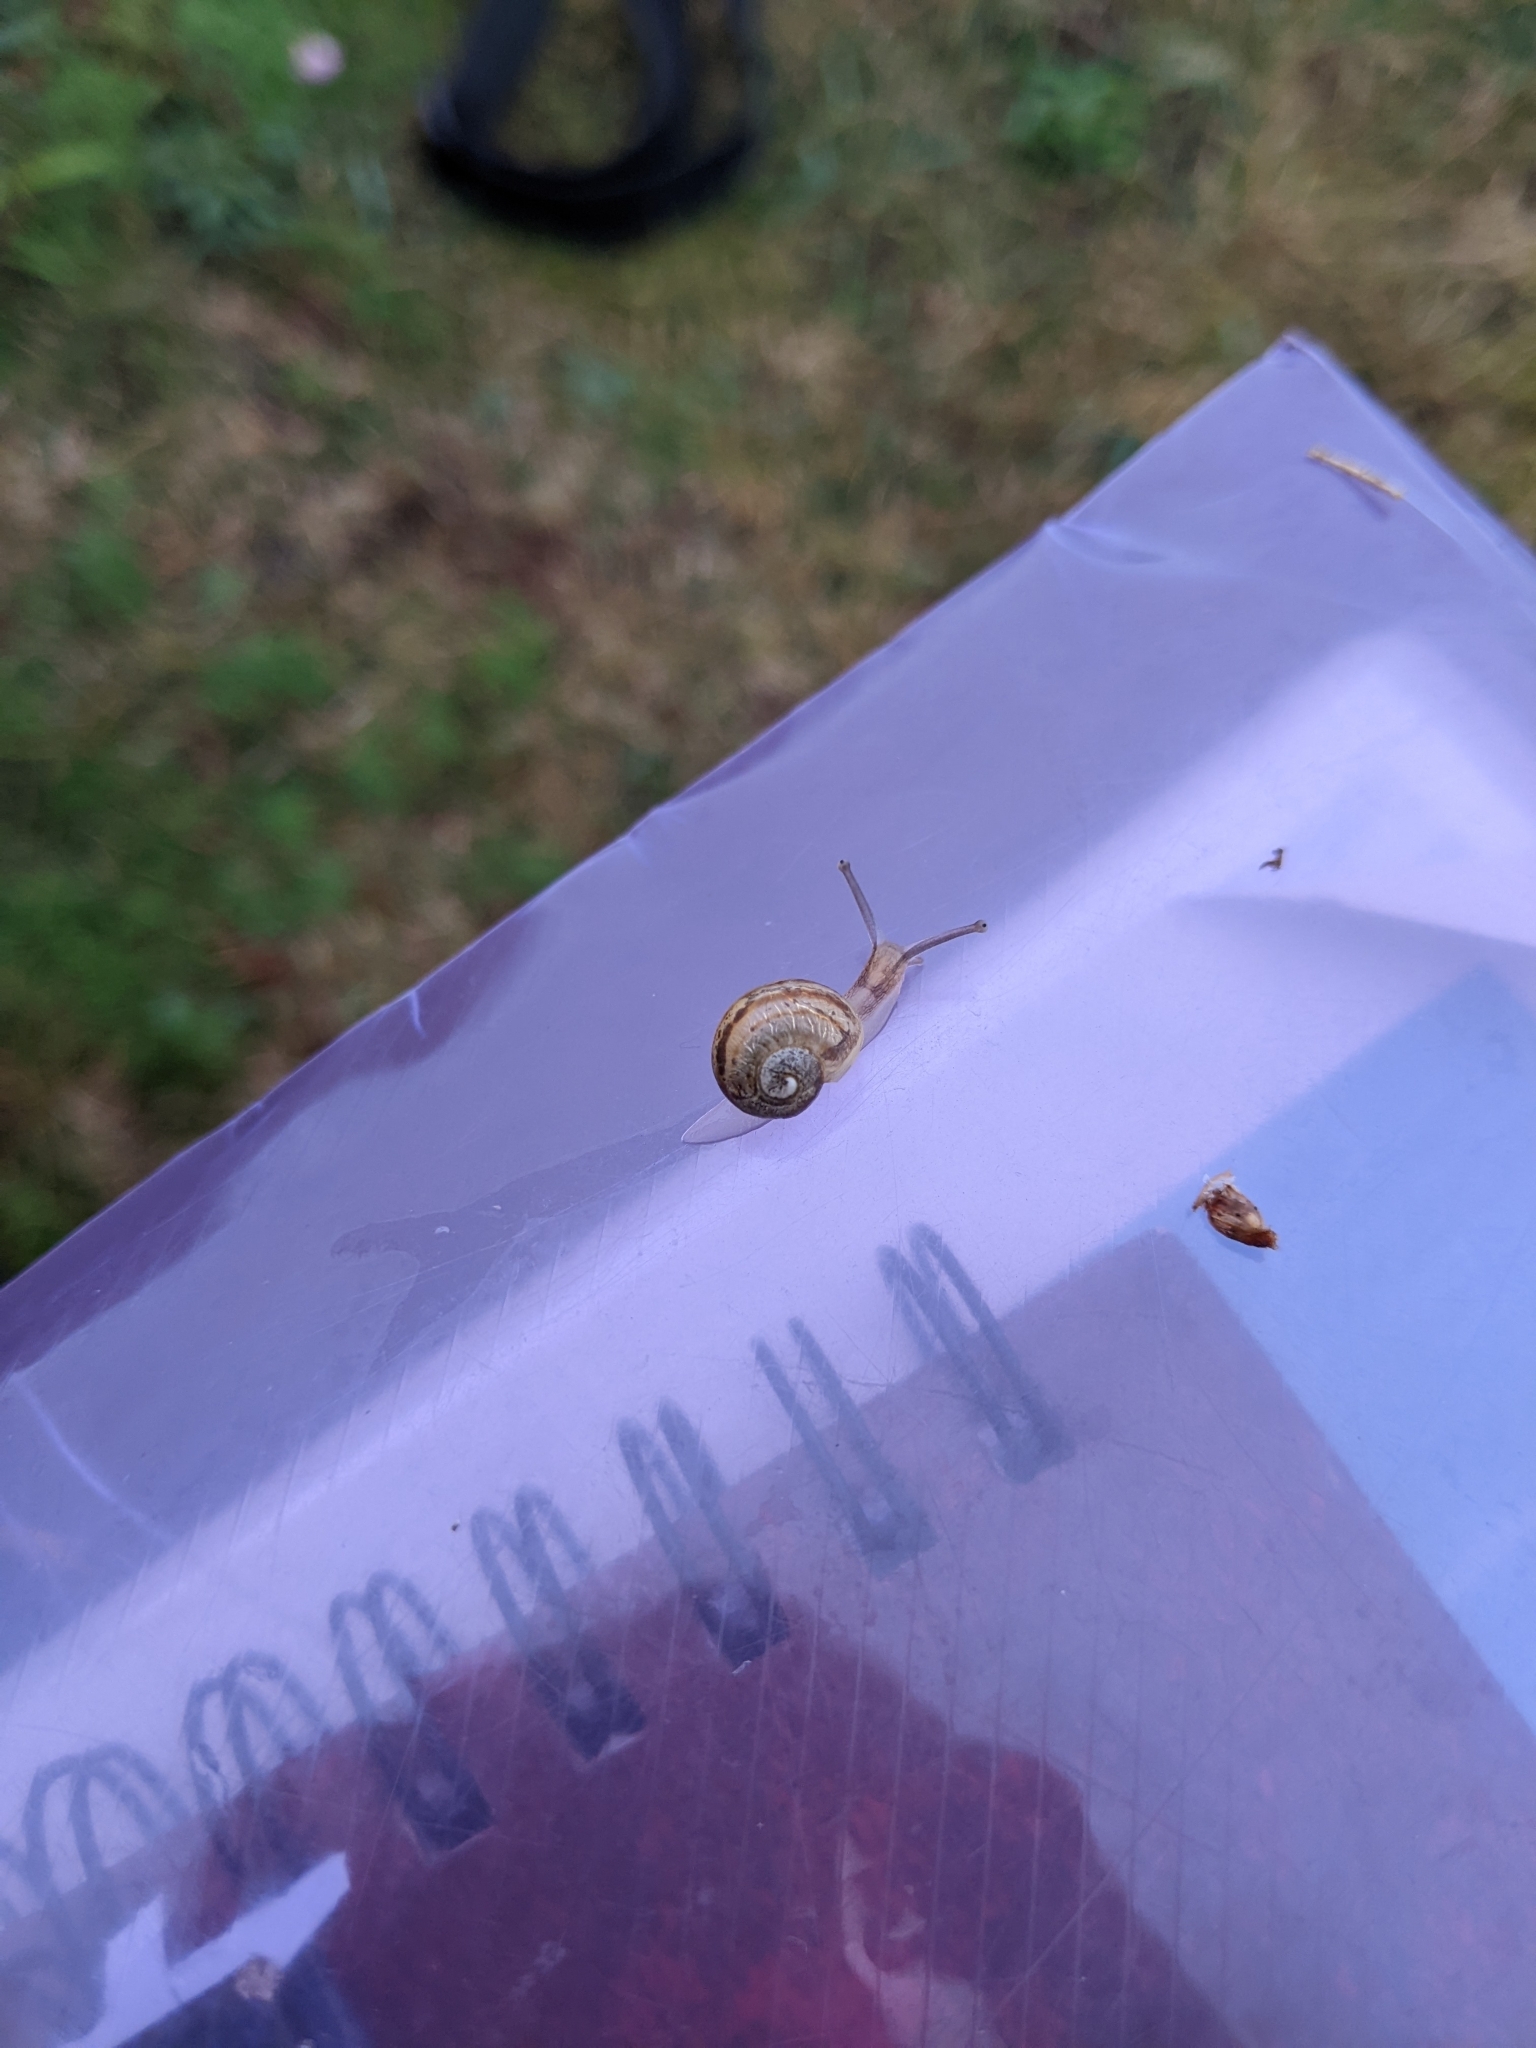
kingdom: Animalia
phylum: Mollusca
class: Gastropoda
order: Stylommatophora
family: Helicidae
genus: Cornu
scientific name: Cornu aspersum
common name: Brown garden snail
